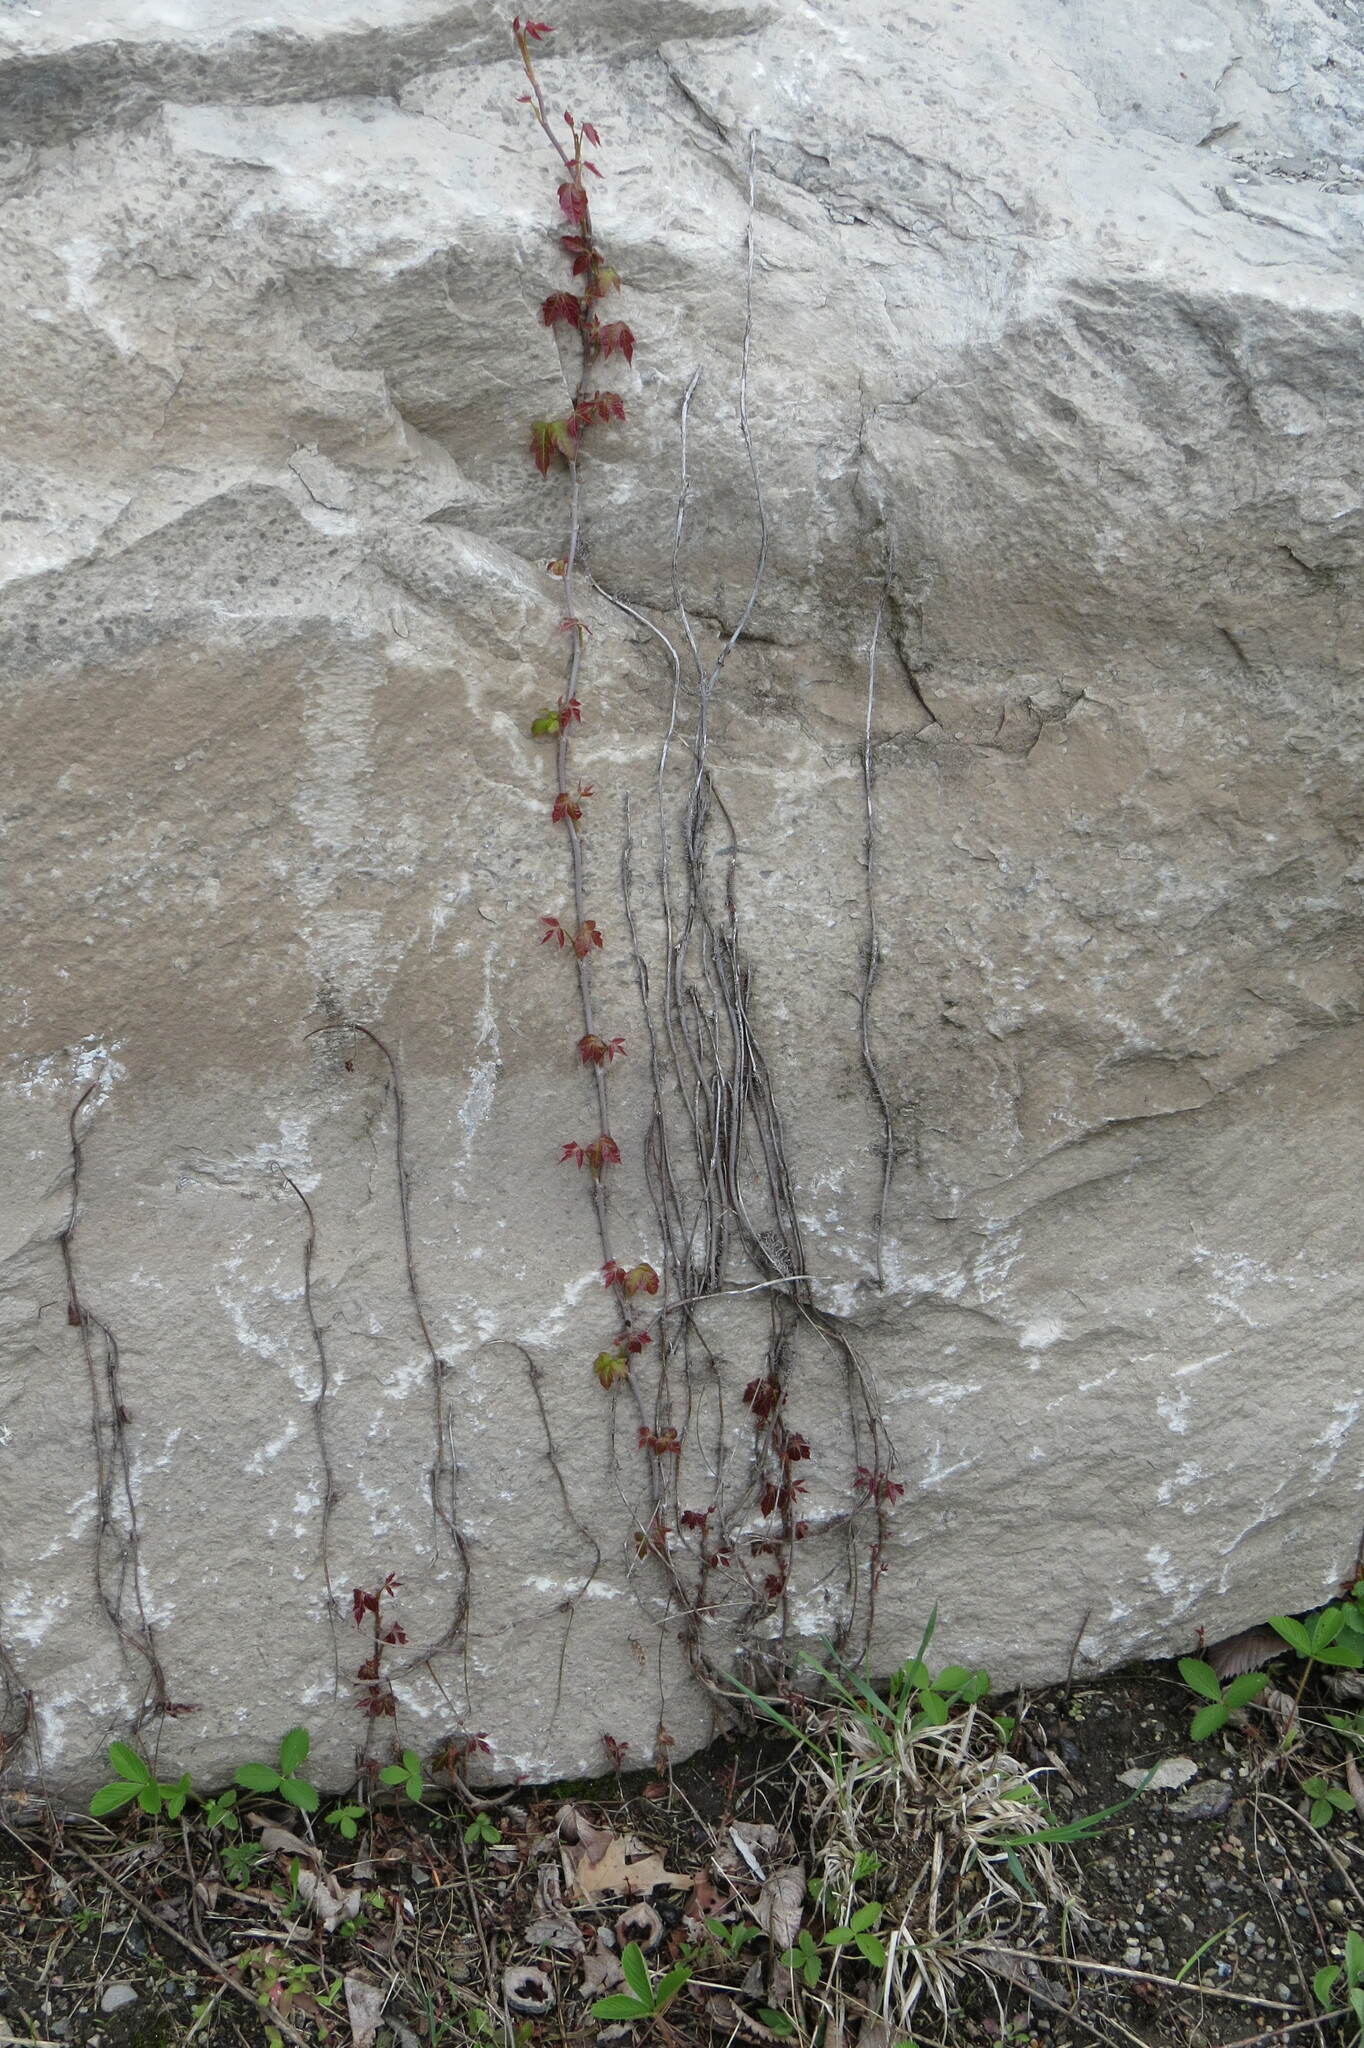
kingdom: Plantae
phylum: Tracheophyta
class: Magnoliopsida
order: Sapindales
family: Anacardiaceae
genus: Toxicodendron
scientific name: Toxicodendron radicans
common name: Poison ivy
